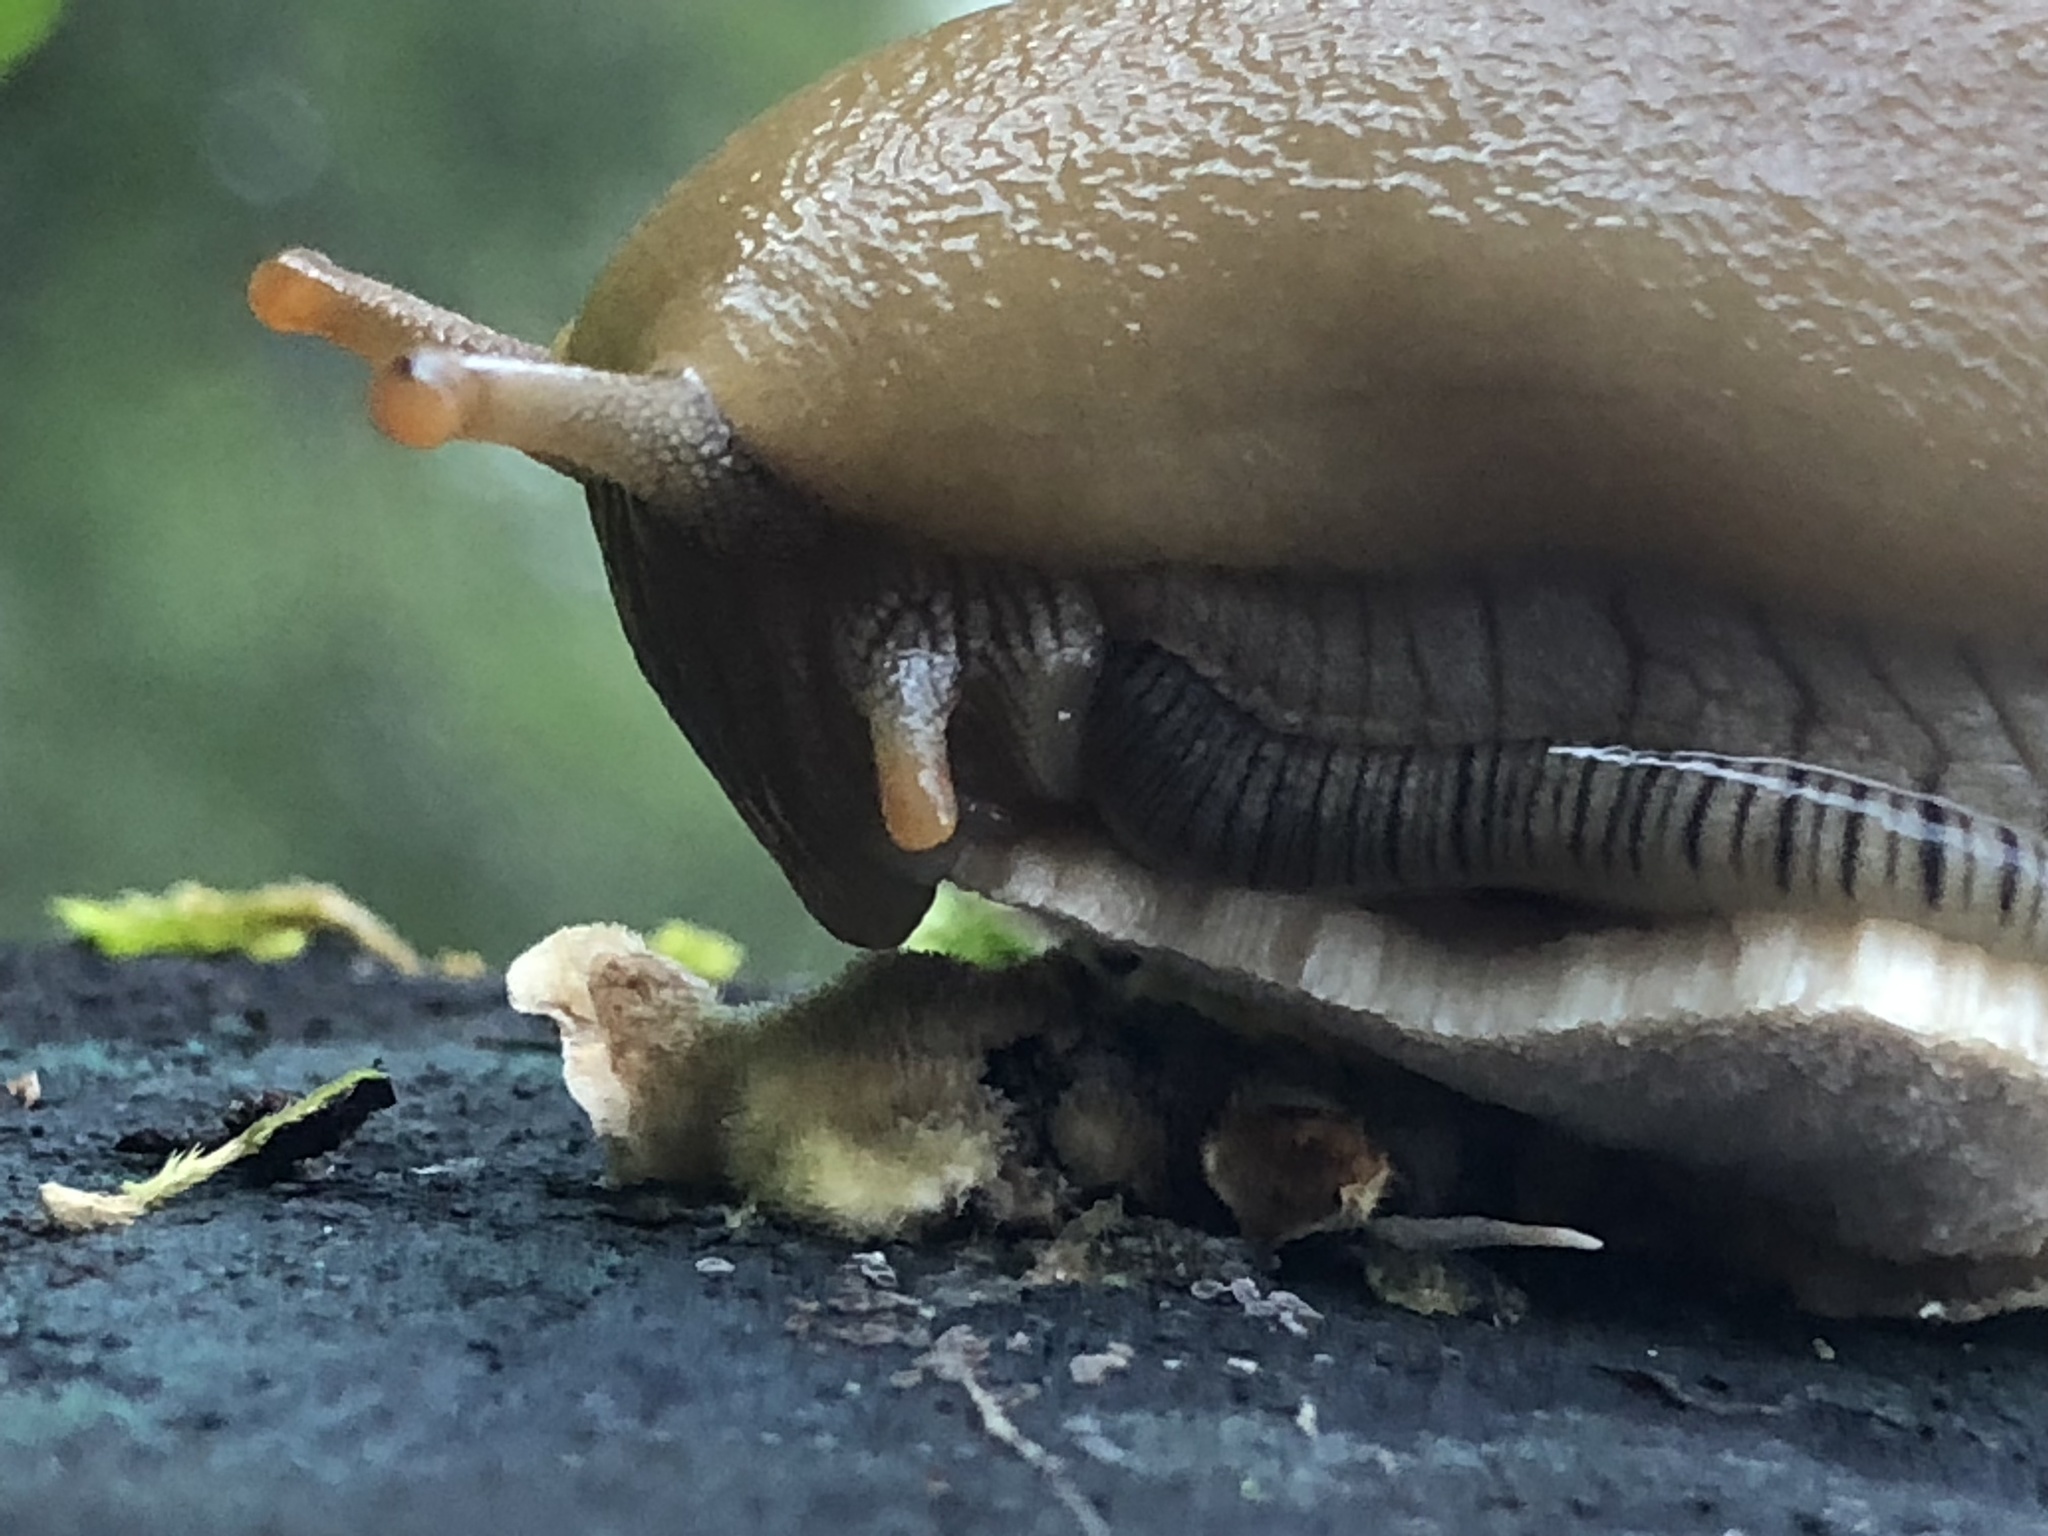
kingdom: Animalia
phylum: Mollusca
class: Gastropoda
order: Stylommatophora
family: Ariolimacidae
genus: Ariolimax
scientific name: Ariolimax buttoni
